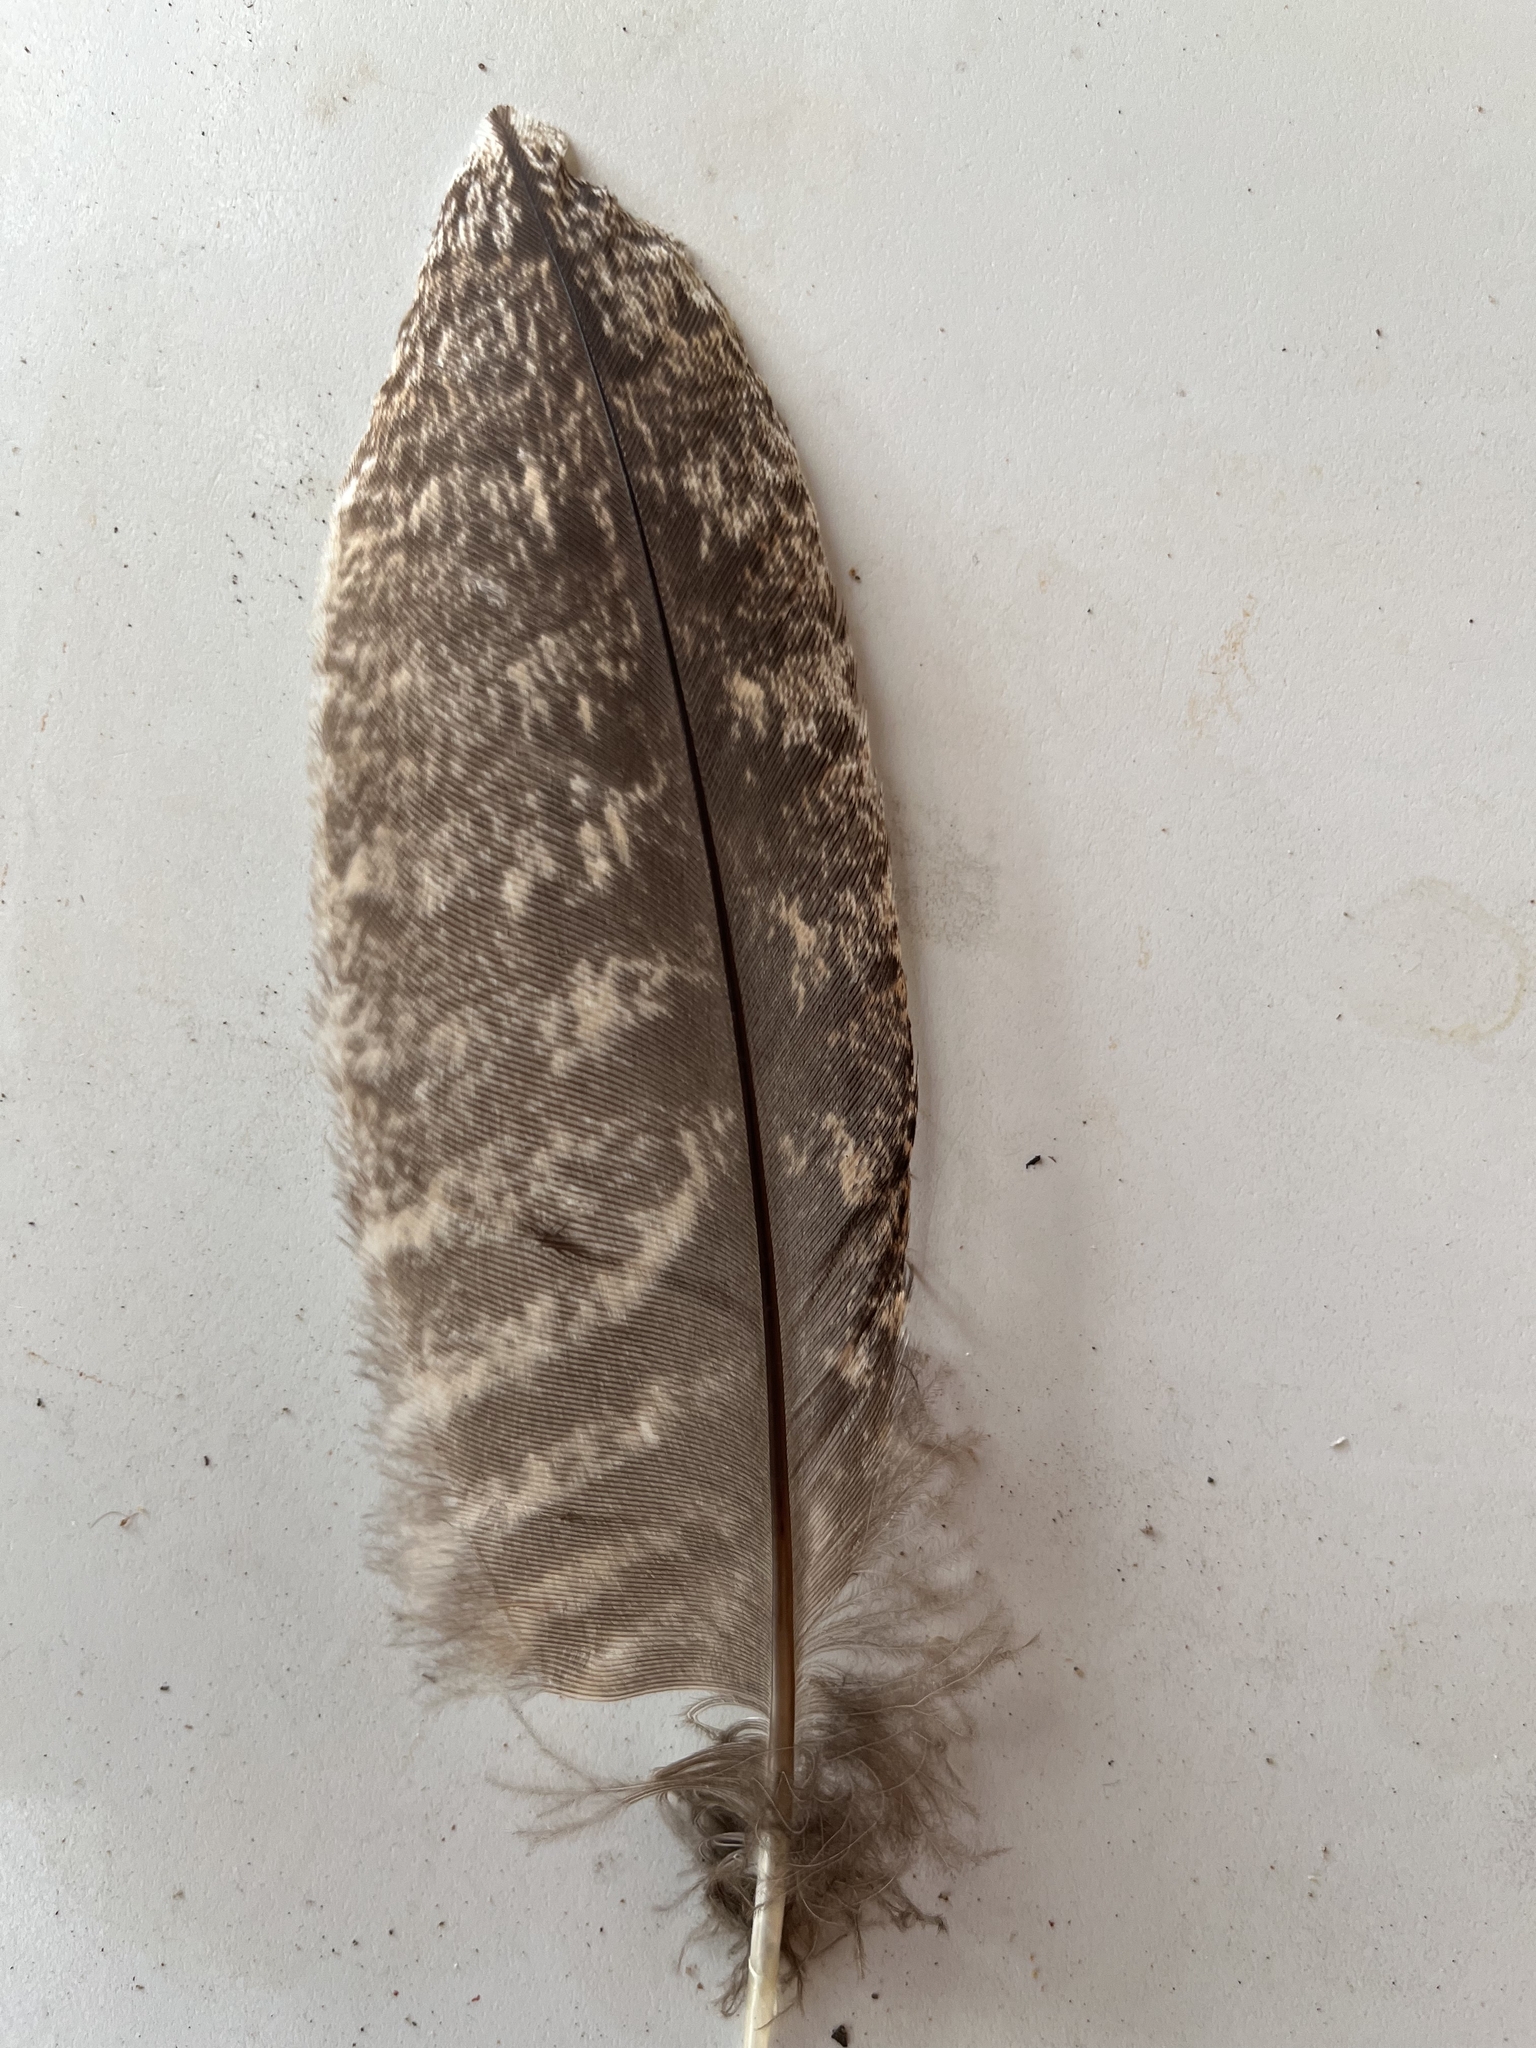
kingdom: Animalia
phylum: Chordata
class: Aves
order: Caprimulgiformes
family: Podargidae
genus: Podargus
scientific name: Podargus strigoides
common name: Tawny frogmouth
